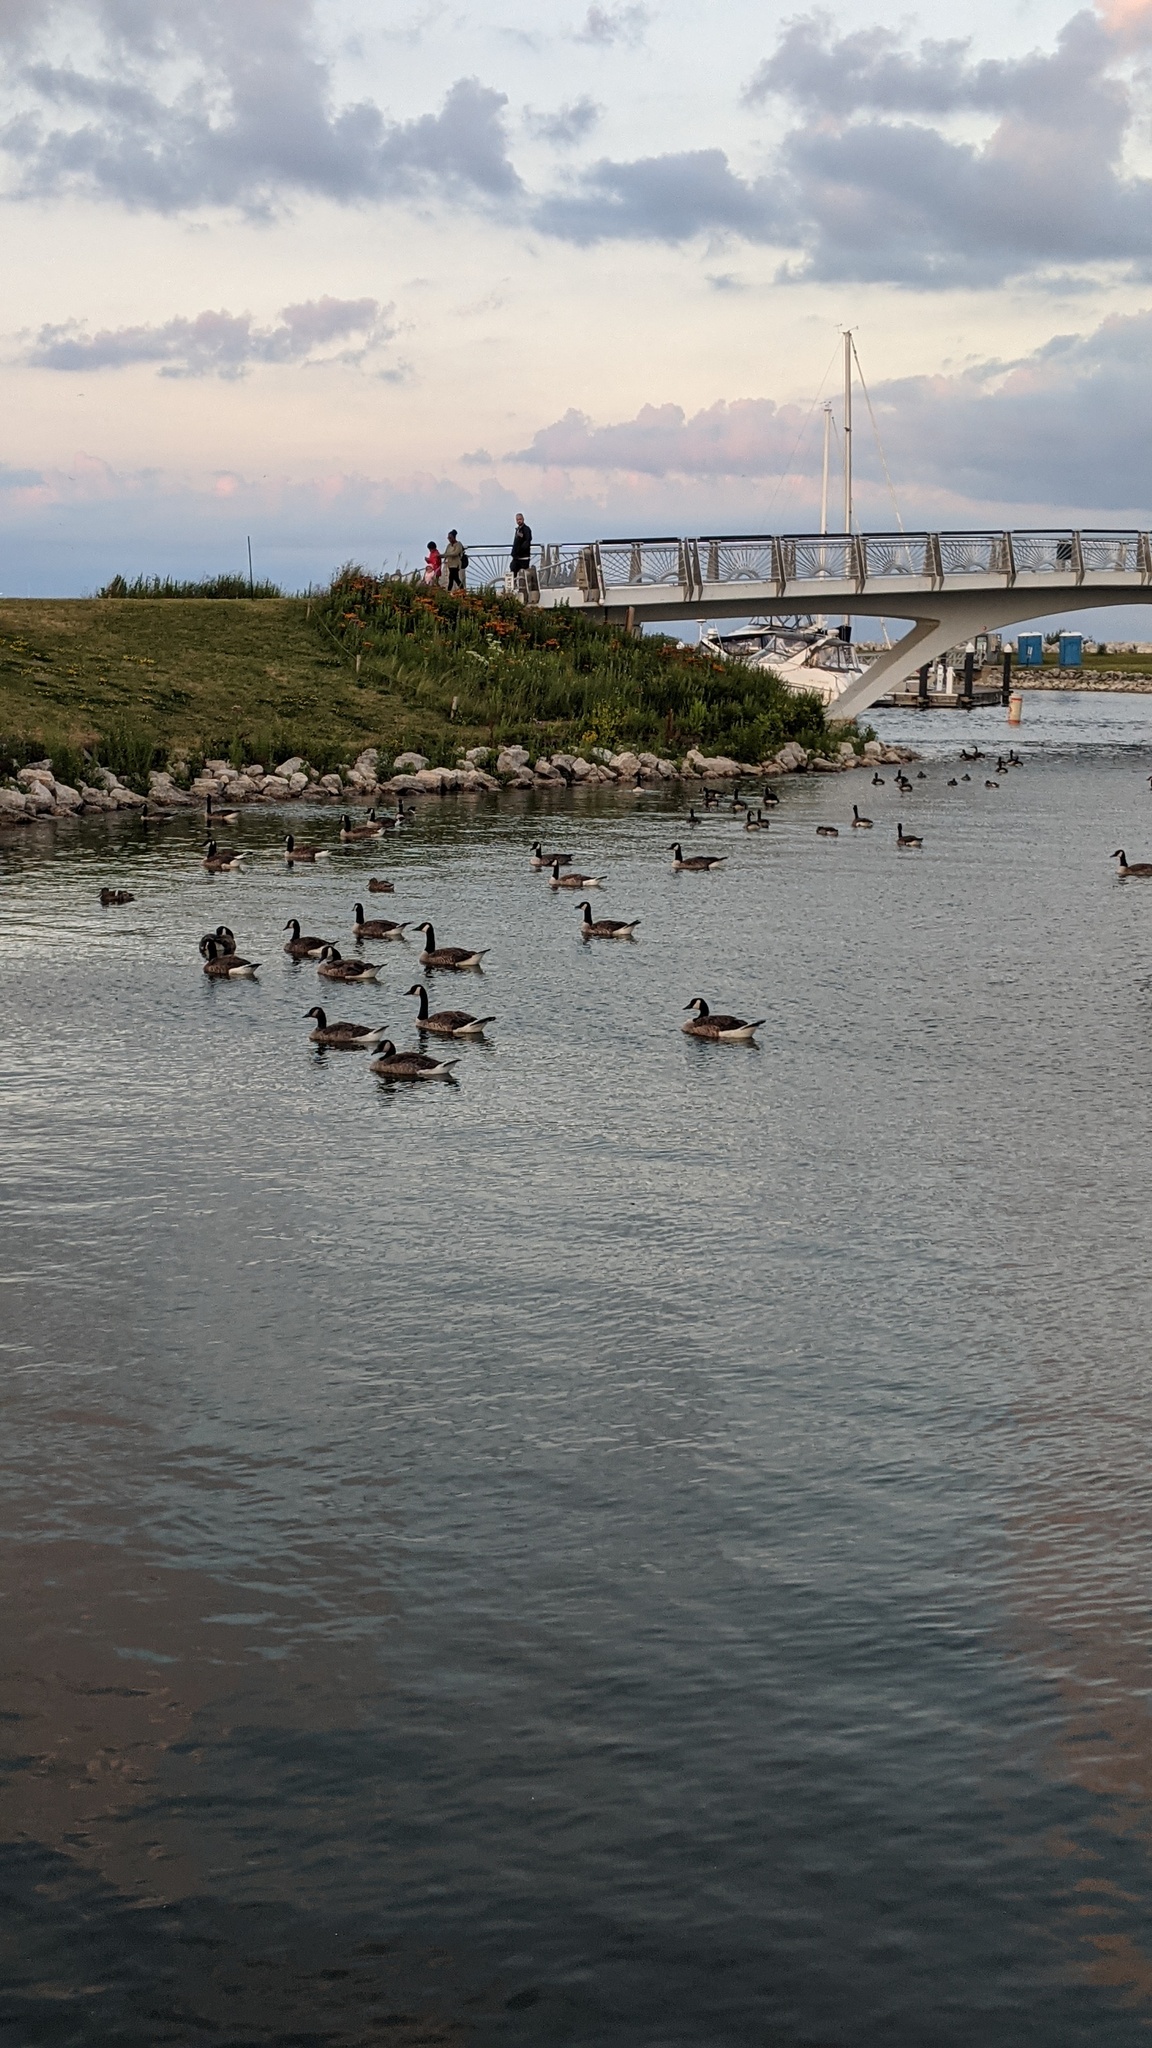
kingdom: Animalia
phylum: Chordata
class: Aves
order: Anseriformes
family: Anatidae
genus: Branta
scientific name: Branta canadensis
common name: Canada goose
